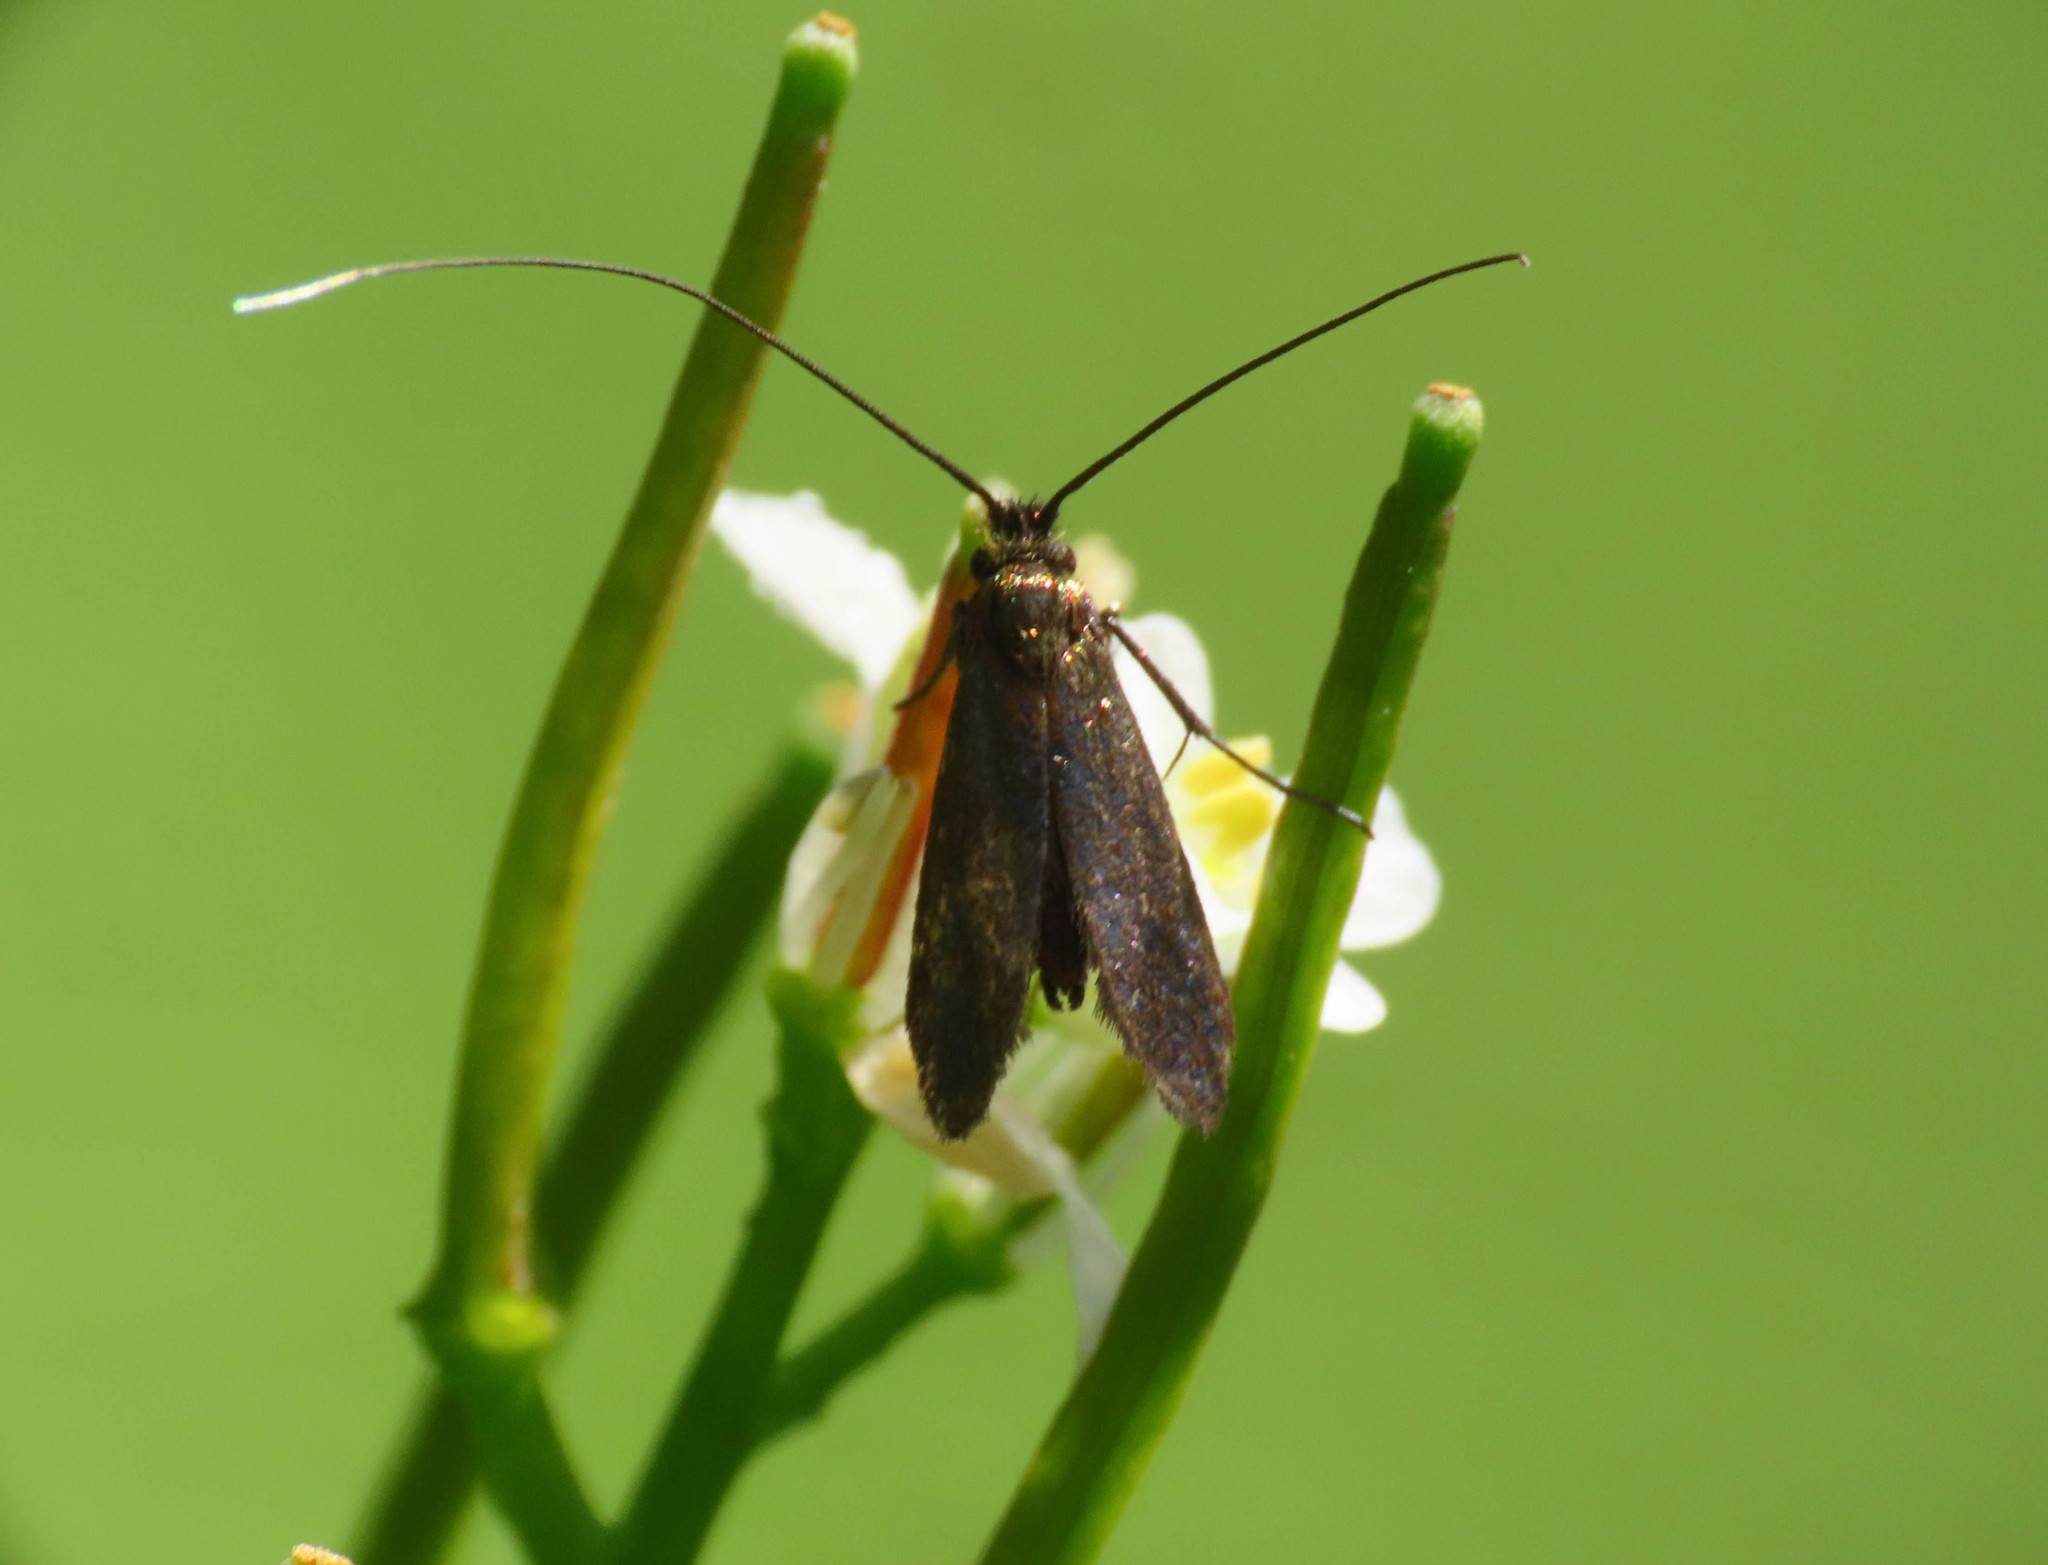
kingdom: Animalia
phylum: Arthropoda
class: Insecta
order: Lepidoptera
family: Adelidae
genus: Cauchas
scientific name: Cauchas rufimitrella
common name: Meadow long-horn
